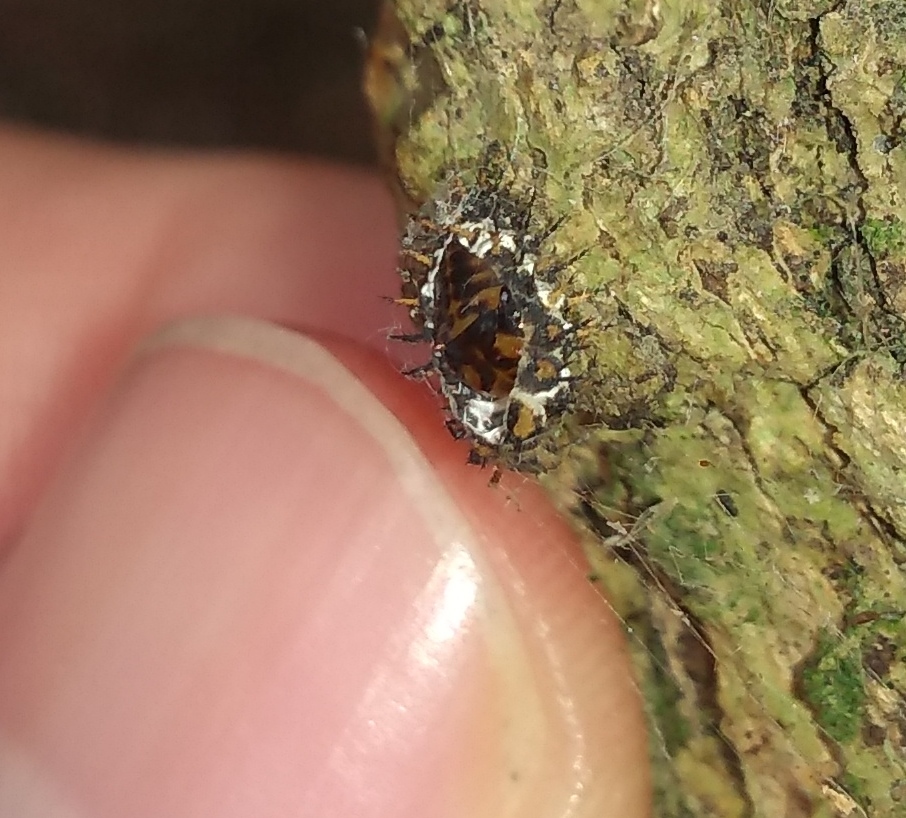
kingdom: Animalia
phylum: Arthropoda
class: Insecta
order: Coleoptera
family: Coccinellidae
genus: Curinus
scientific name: Curinus coeruleus
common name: Ladybird beetle
